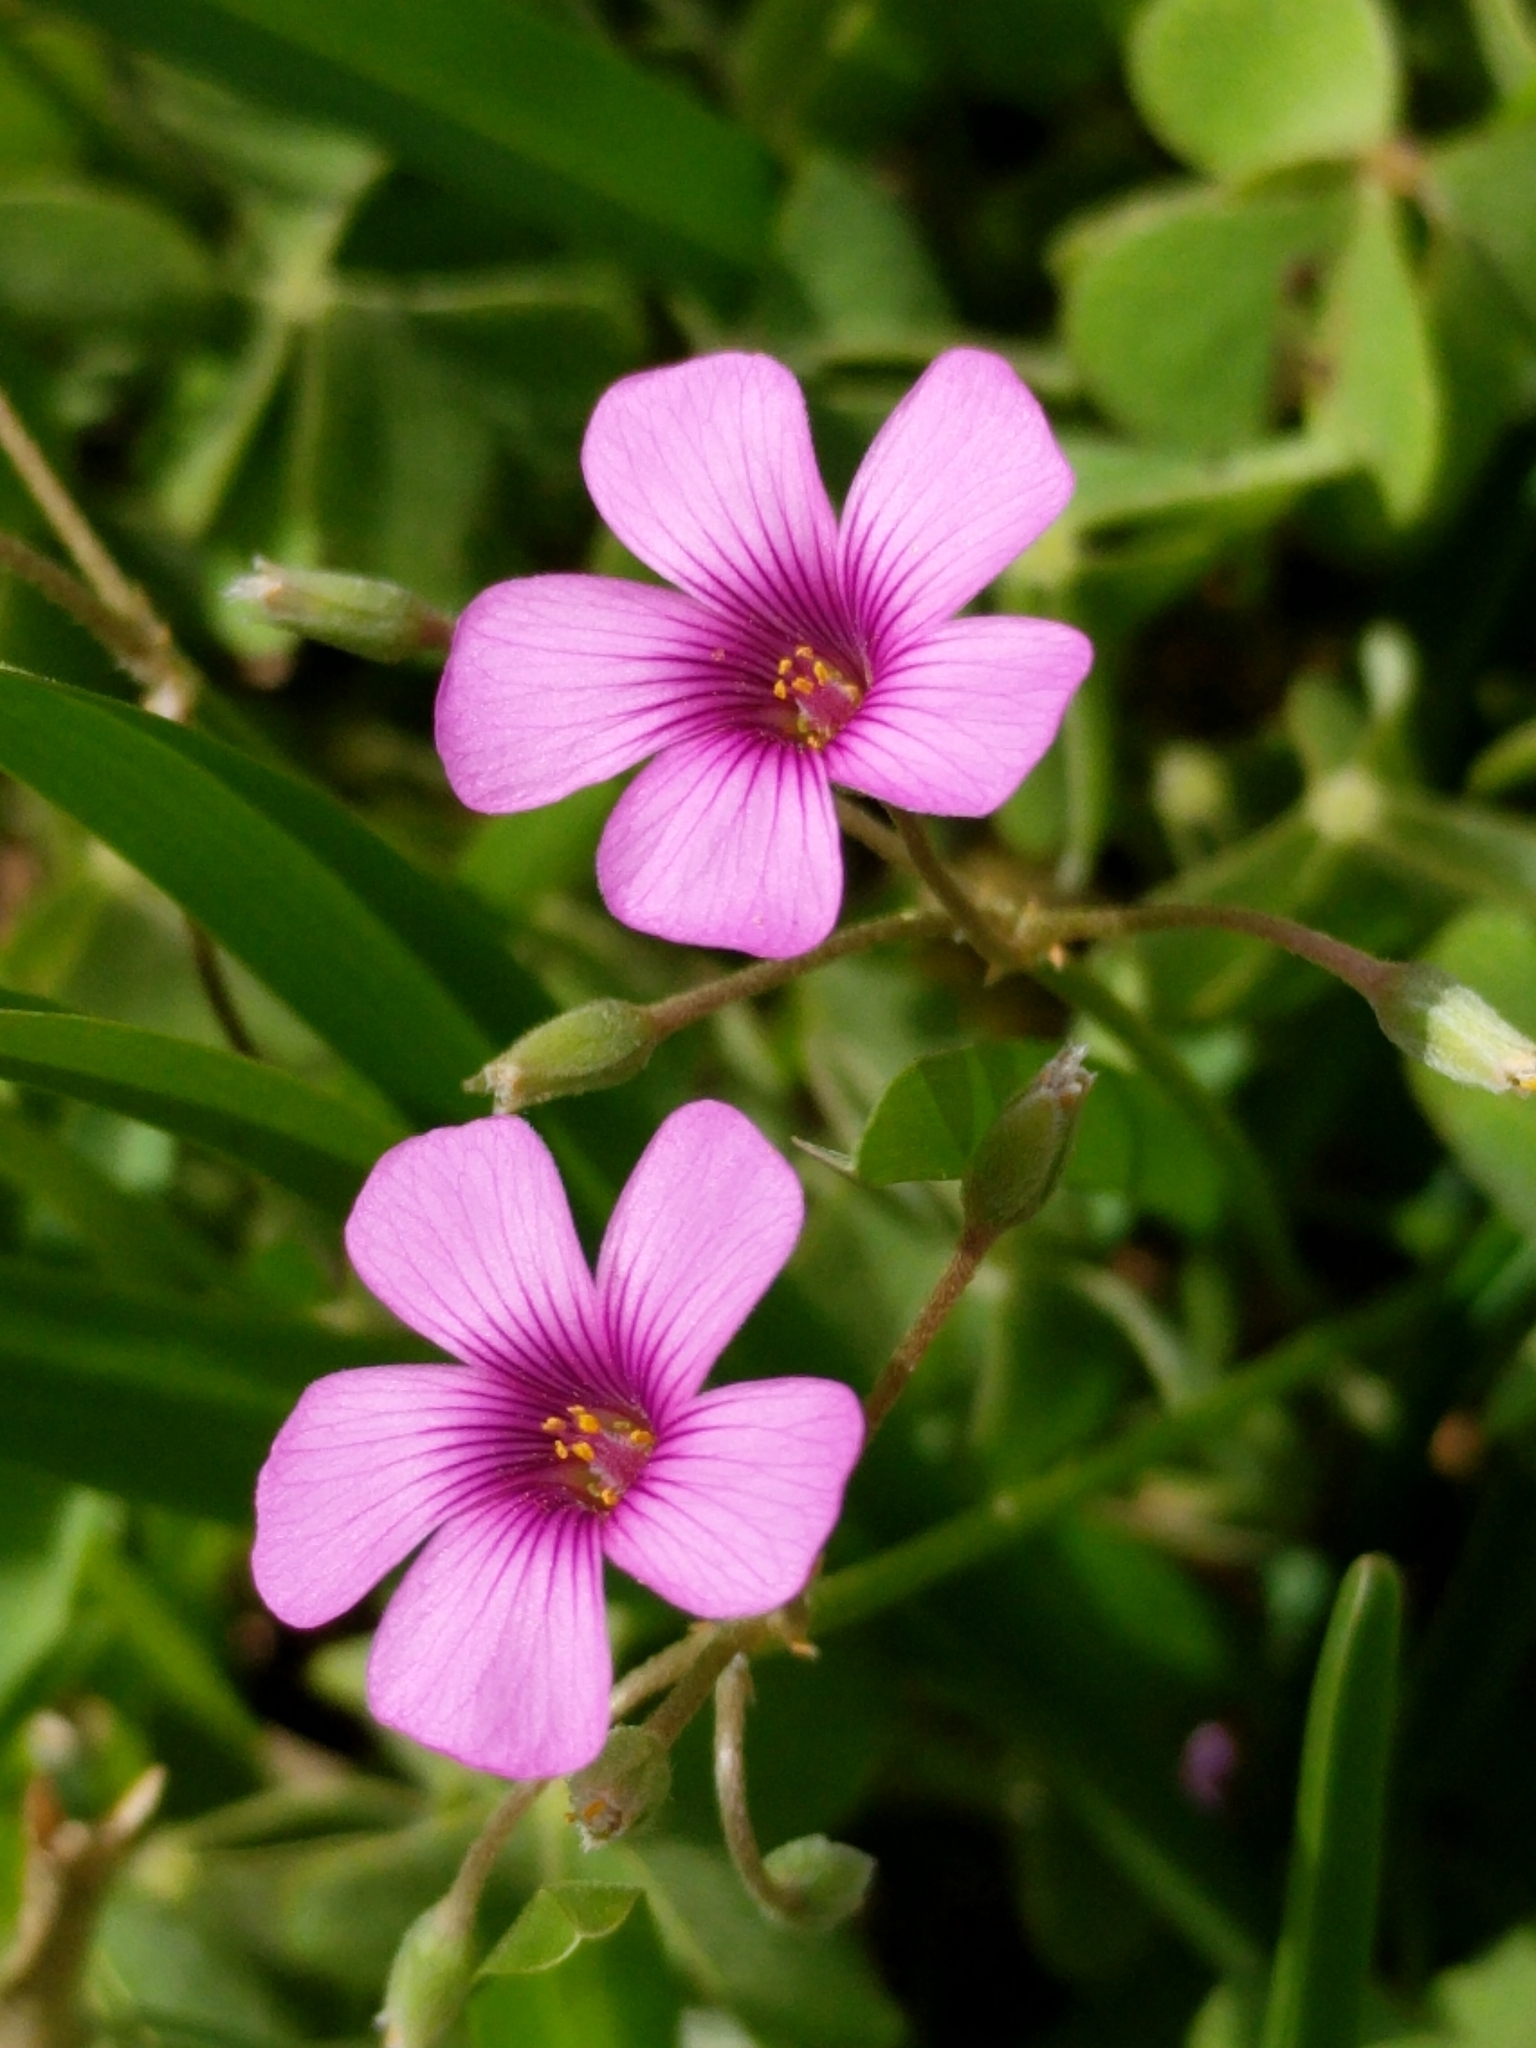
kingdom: Plantae
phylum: Tracheophyta
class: Magnoliopsida
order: Oxalidales
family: Oxalidaceae
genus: Oxalis
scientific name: Oxalis articulata
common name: Pink-sorrel
